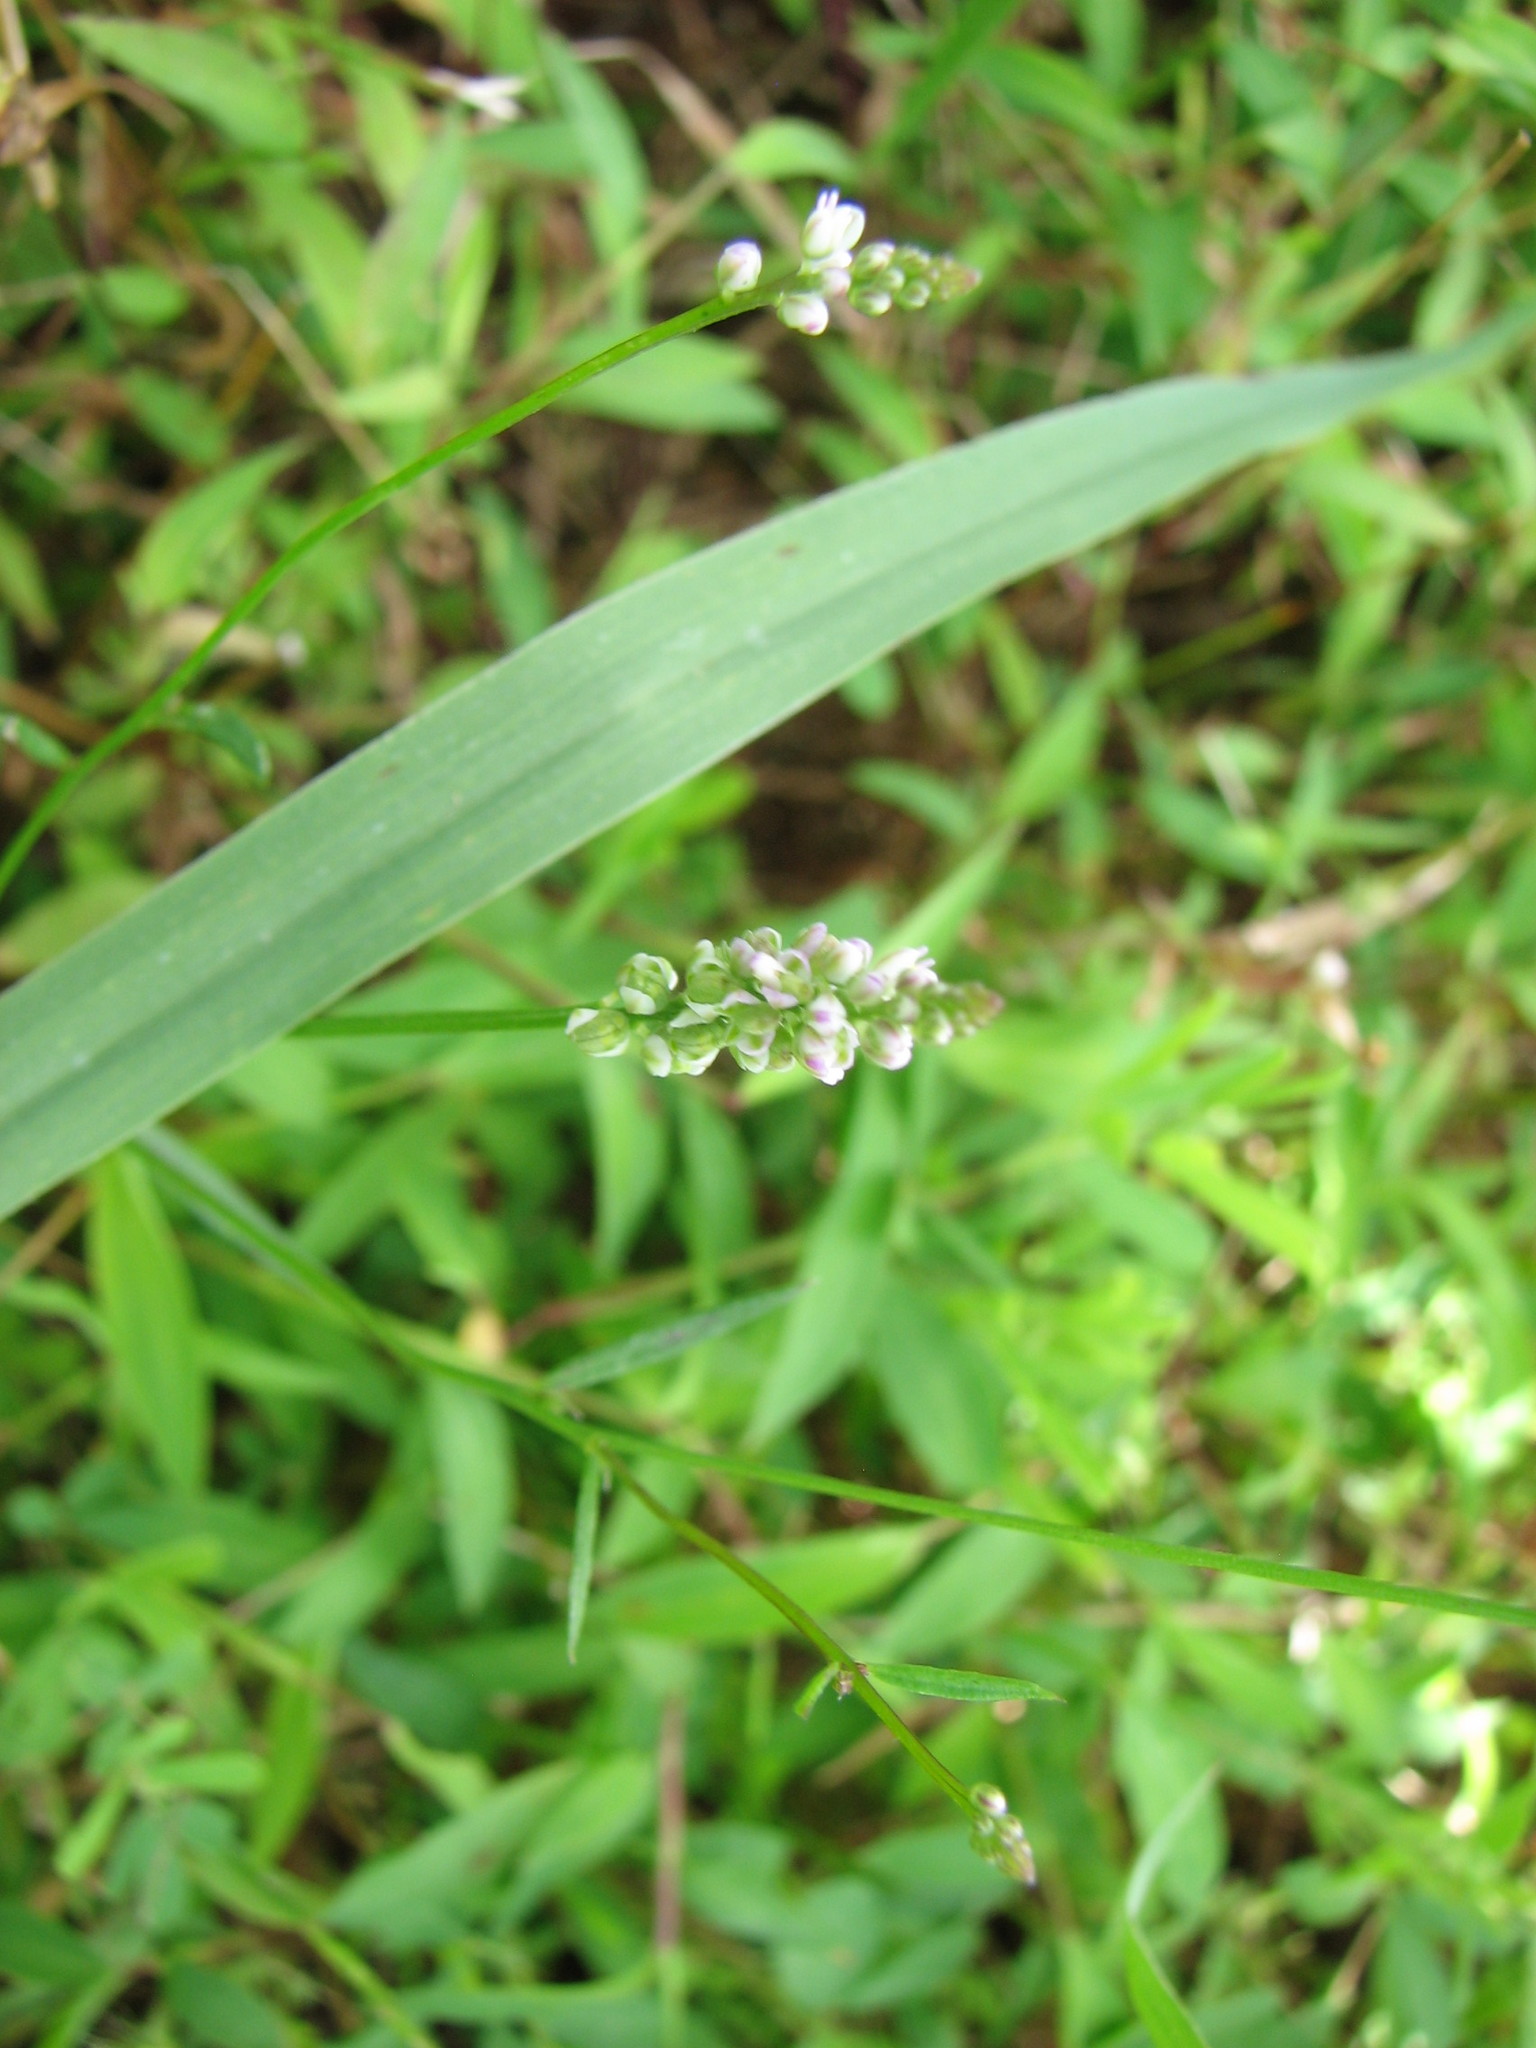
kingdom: Plantae
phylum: Tracheophyta
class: Magnoliopsida
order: Fabales
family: Polygalaceae
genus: Polygala
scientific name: Polygala verticillata
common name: Whorl milkwort
